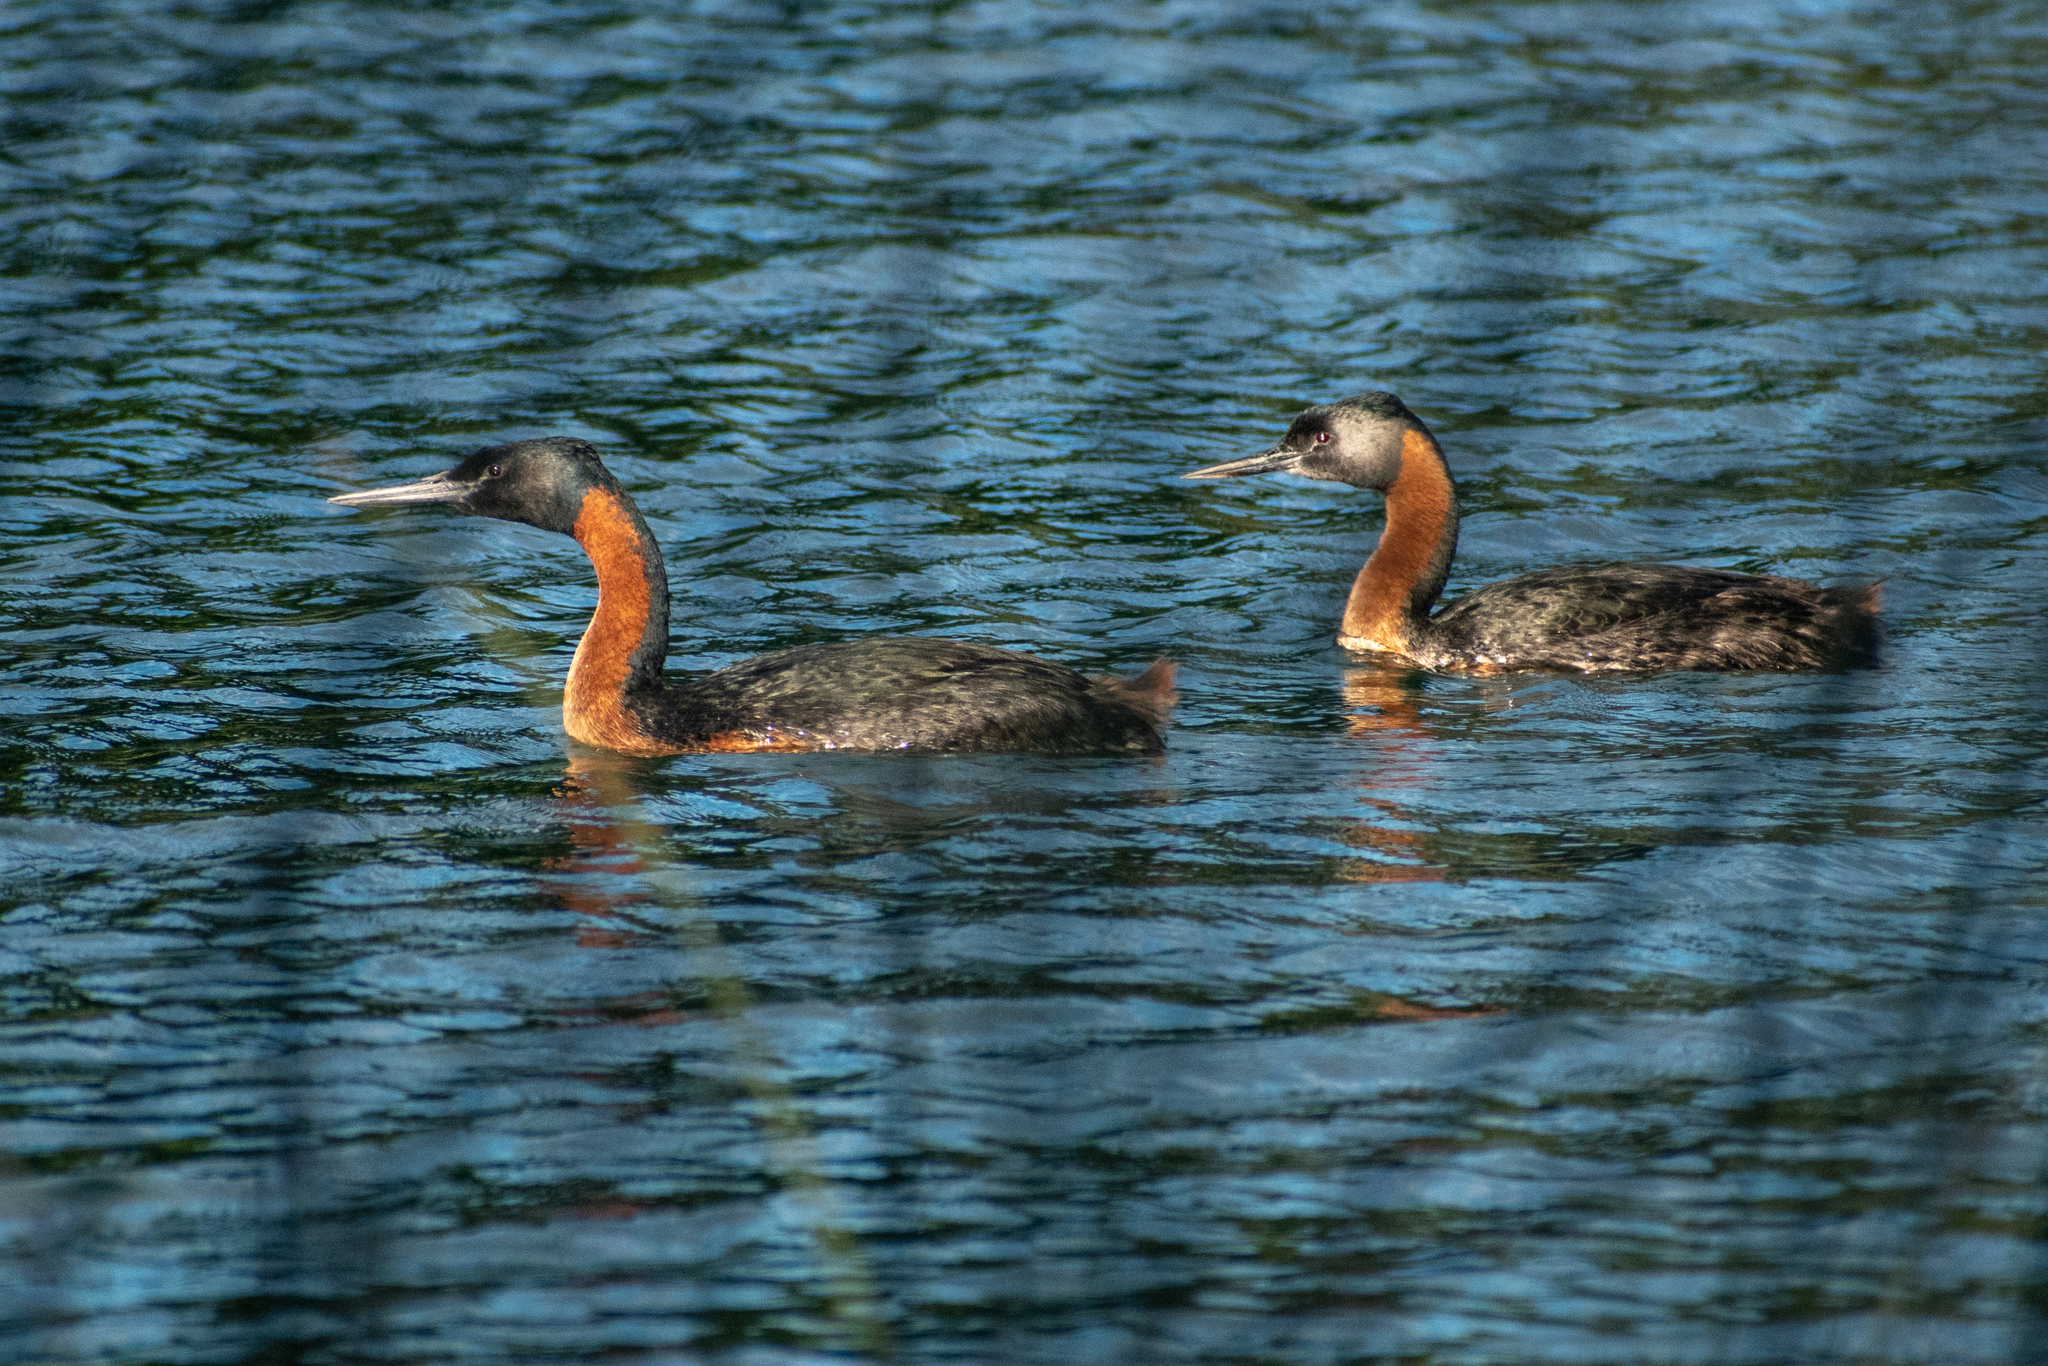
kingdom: Animalia
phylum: Chordata
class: Aves
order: Podicipediformes
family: Podicipedidae
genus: Podiceps
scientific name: Podiceps major
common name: Great grebe
